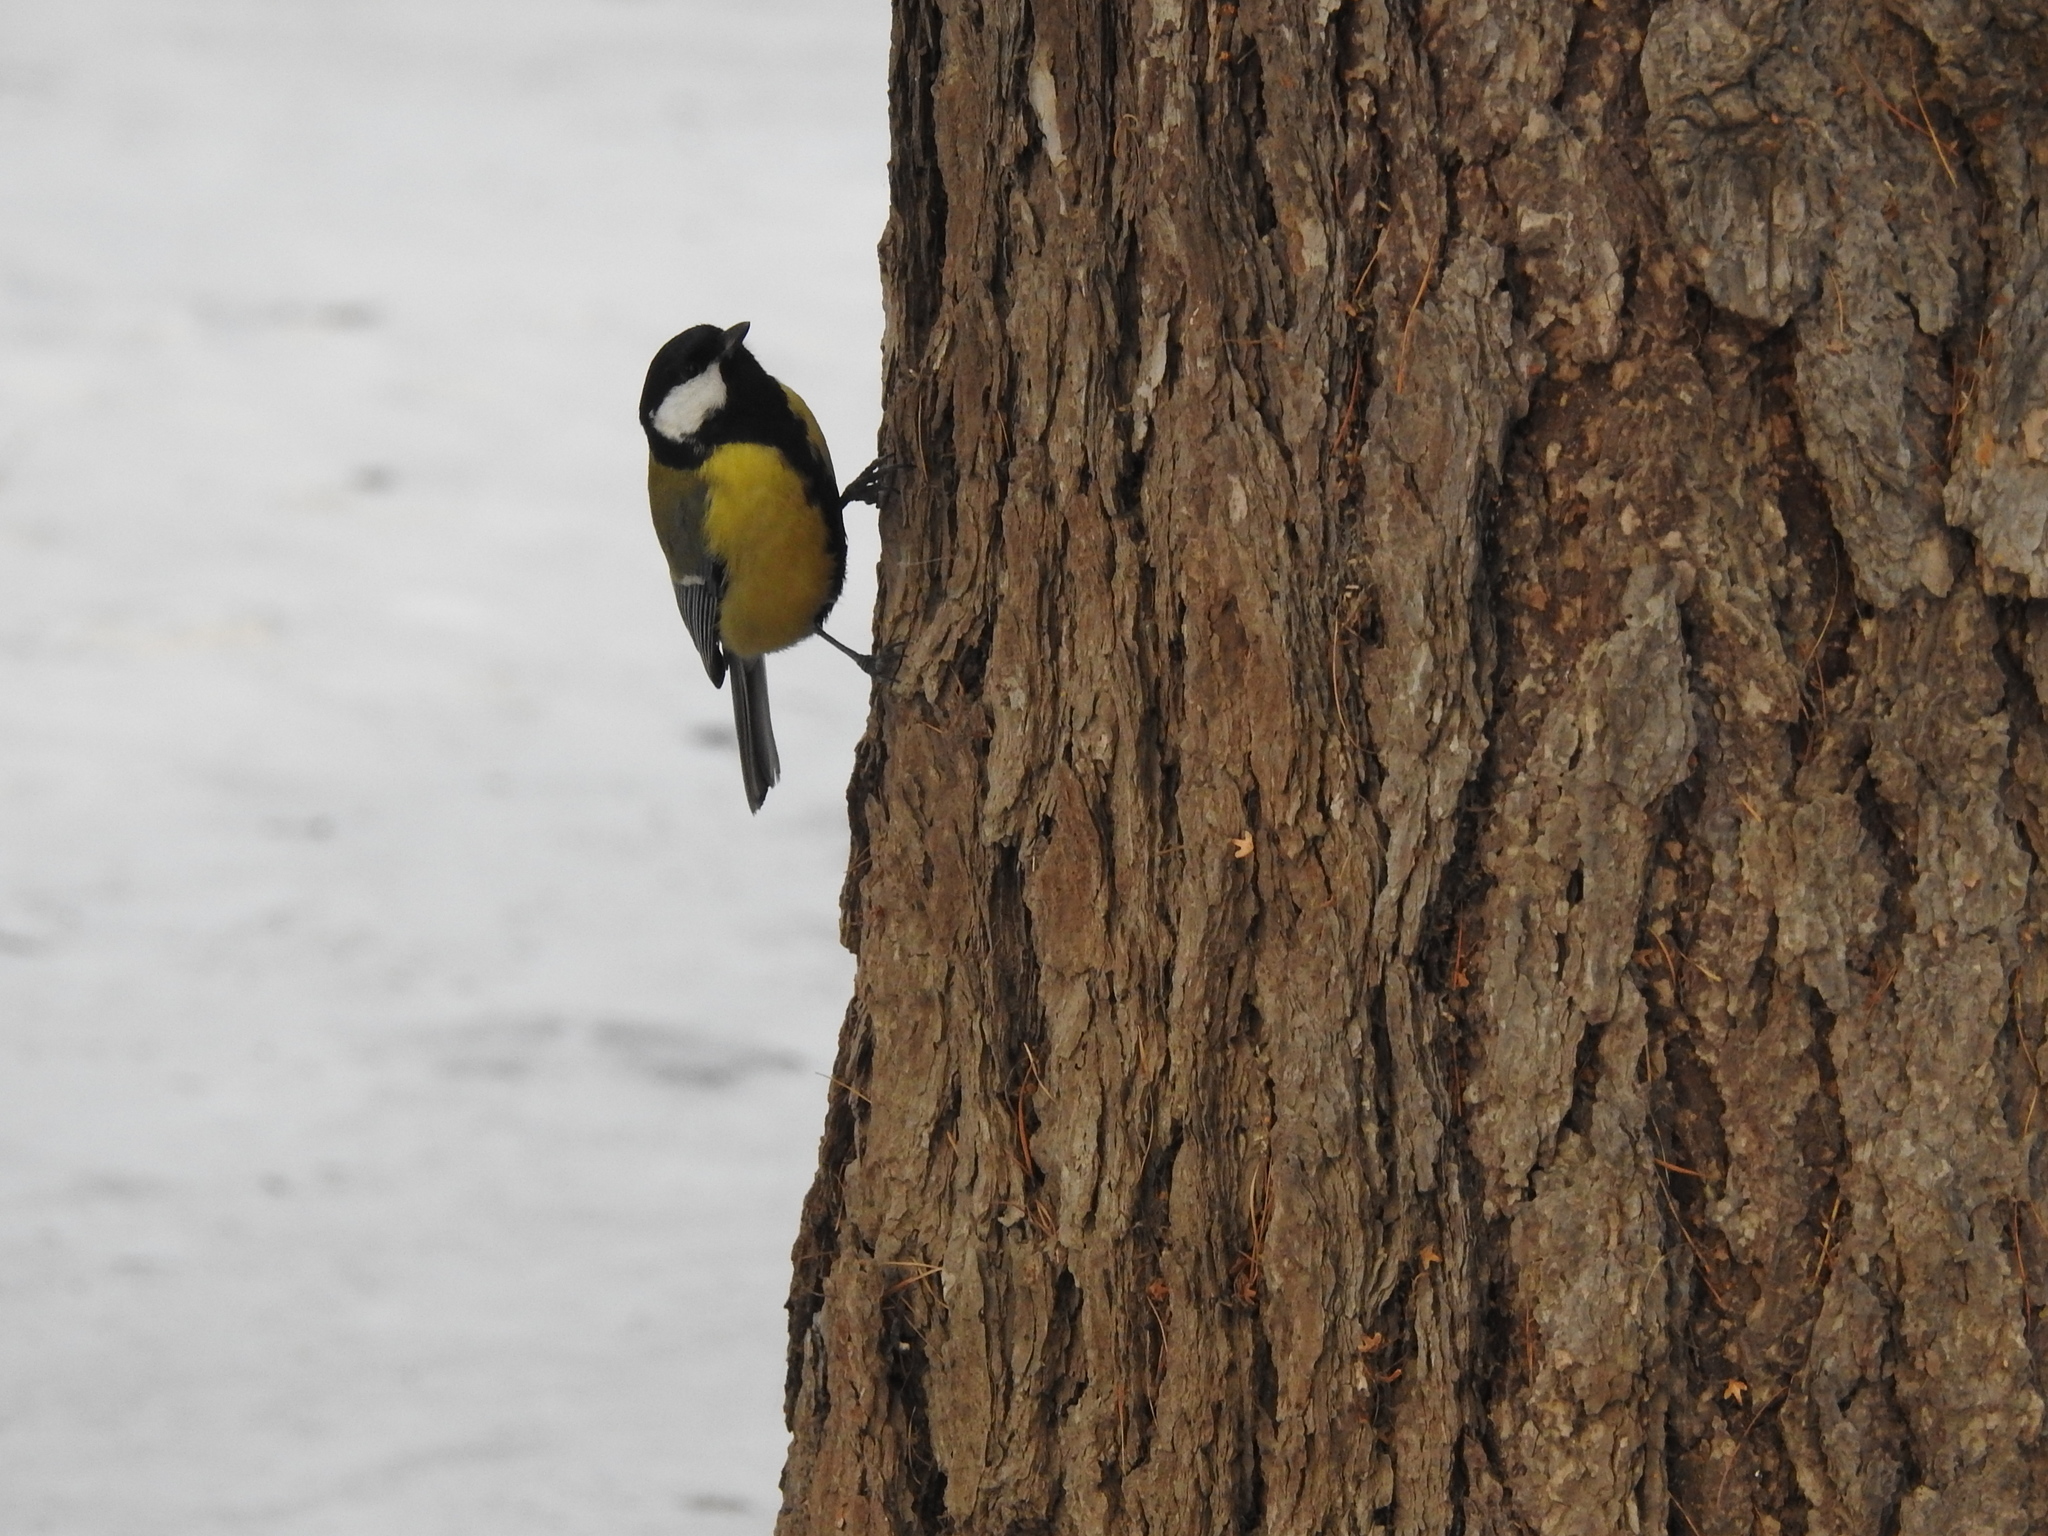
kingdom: Animalia
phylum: Chordata
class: Aves
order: Passeriformes
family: Paridae
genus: Parus
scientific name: Parus major
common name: Great tit
